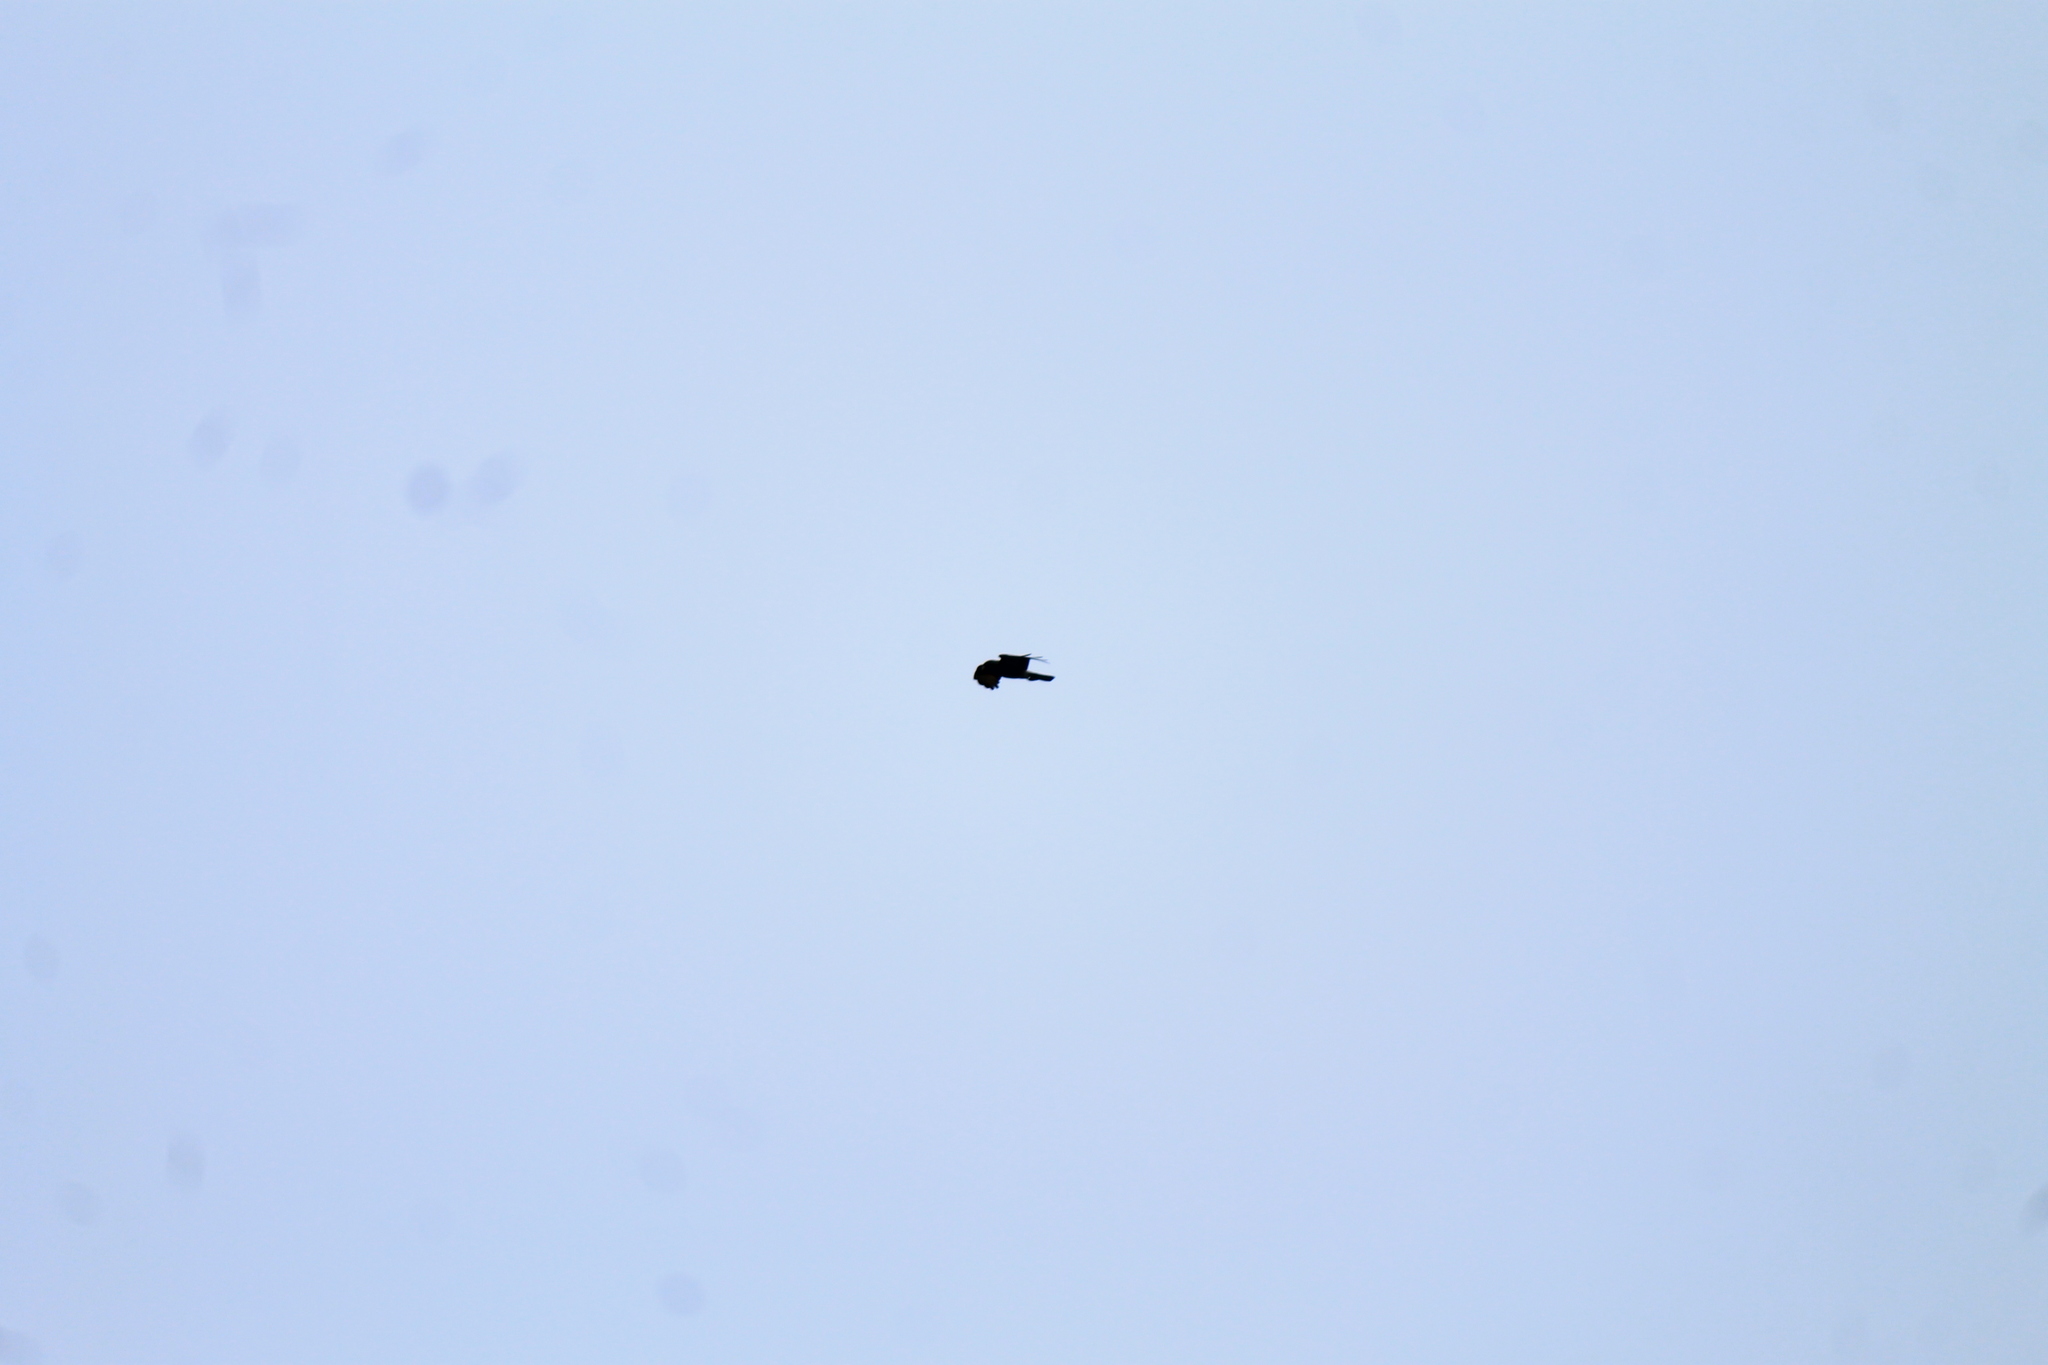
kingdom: Animalia
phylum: Chordata
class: Aves
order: Falconiformes
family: Falconidae
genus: Daptrius
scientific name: Daptrius
